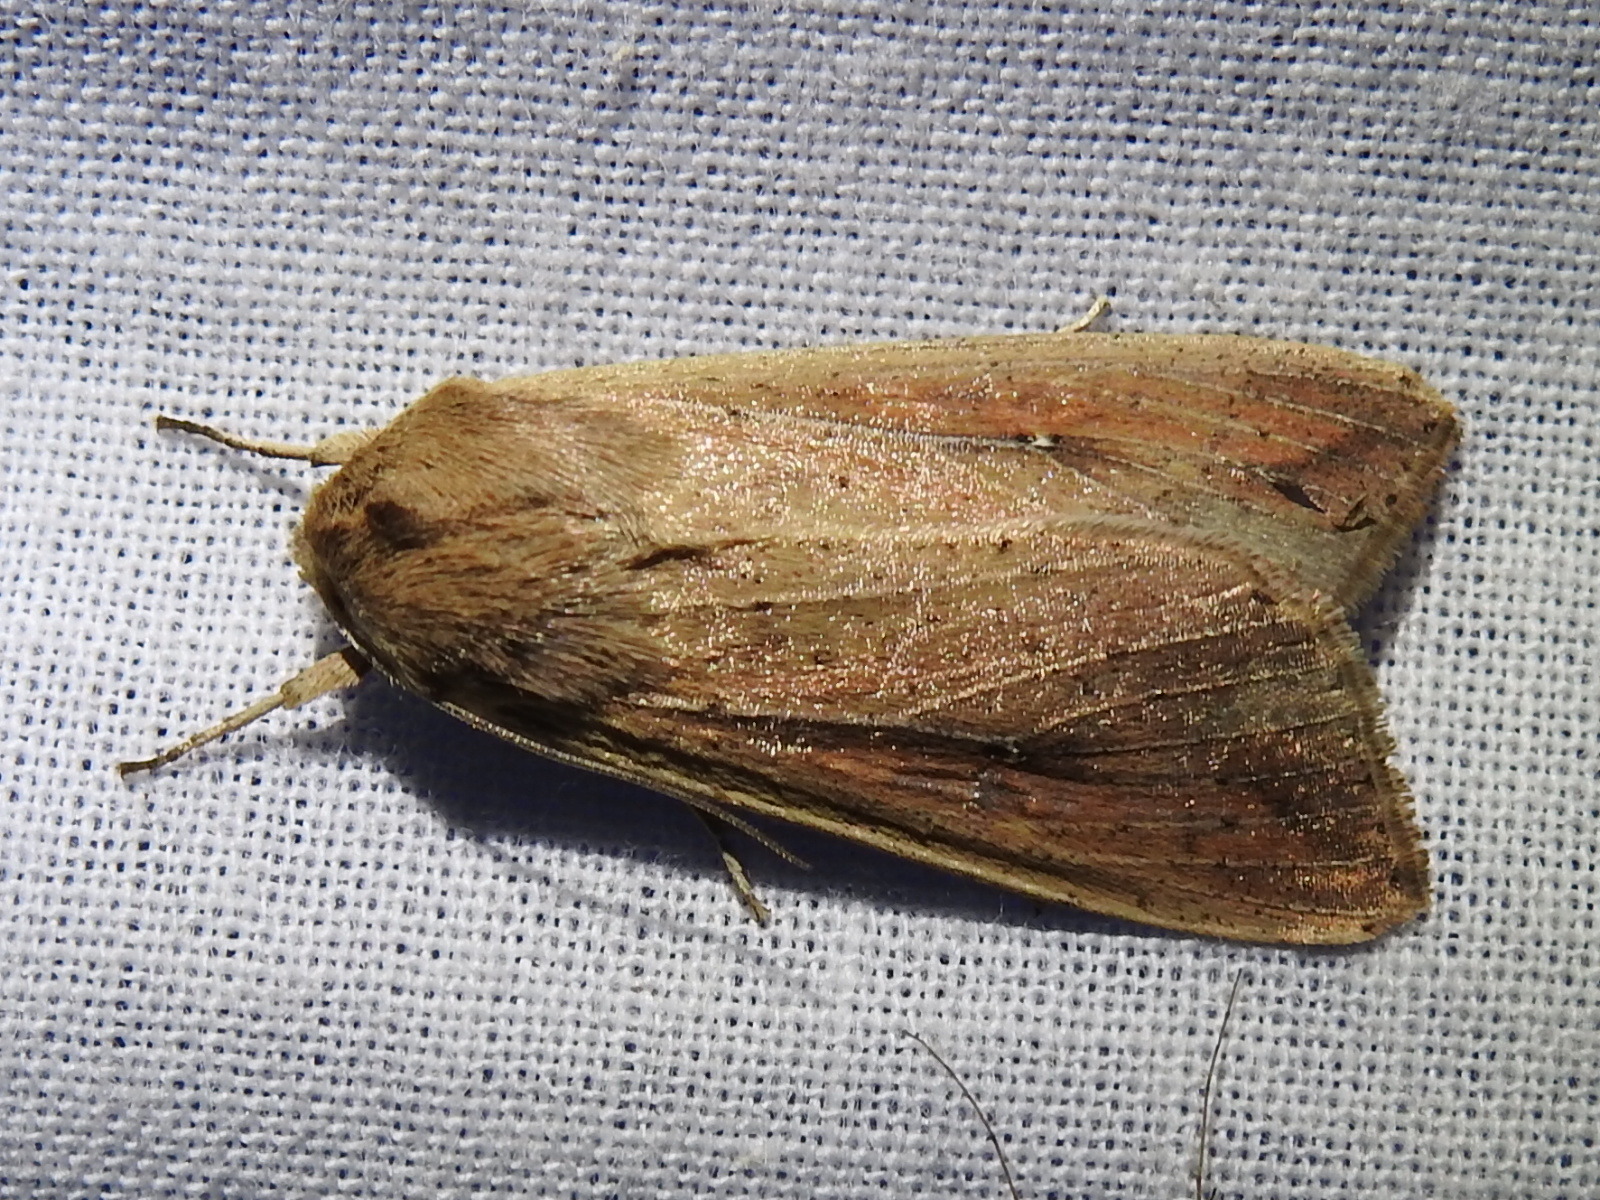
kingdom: Animalia
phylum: Arthropoda
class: Insecta
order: Lepidoptera
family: Noctuidae
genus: Mythimna
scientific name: Mythimna unipuncta
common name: White-speck
